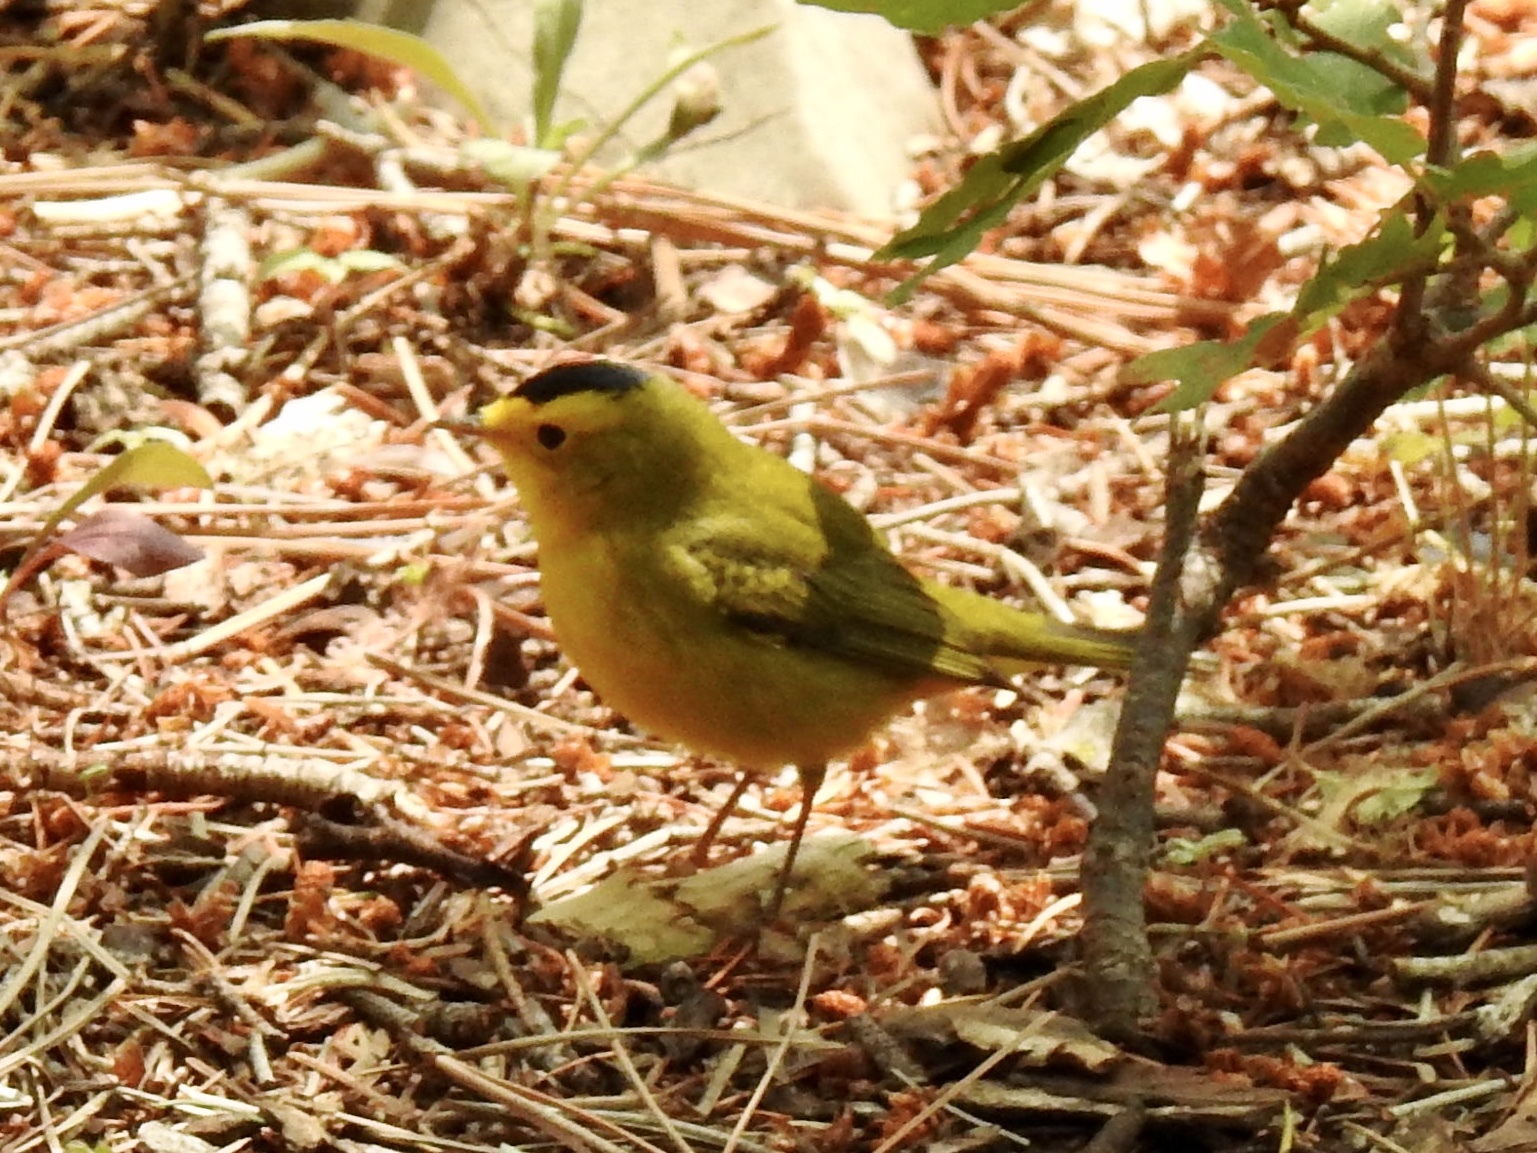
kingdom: Animalia
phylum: Chordata
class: Aves
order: Passeriformes
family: Parulidae
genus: Cardellina
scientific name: Cardellina pusilla
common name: Wilson's warbler
